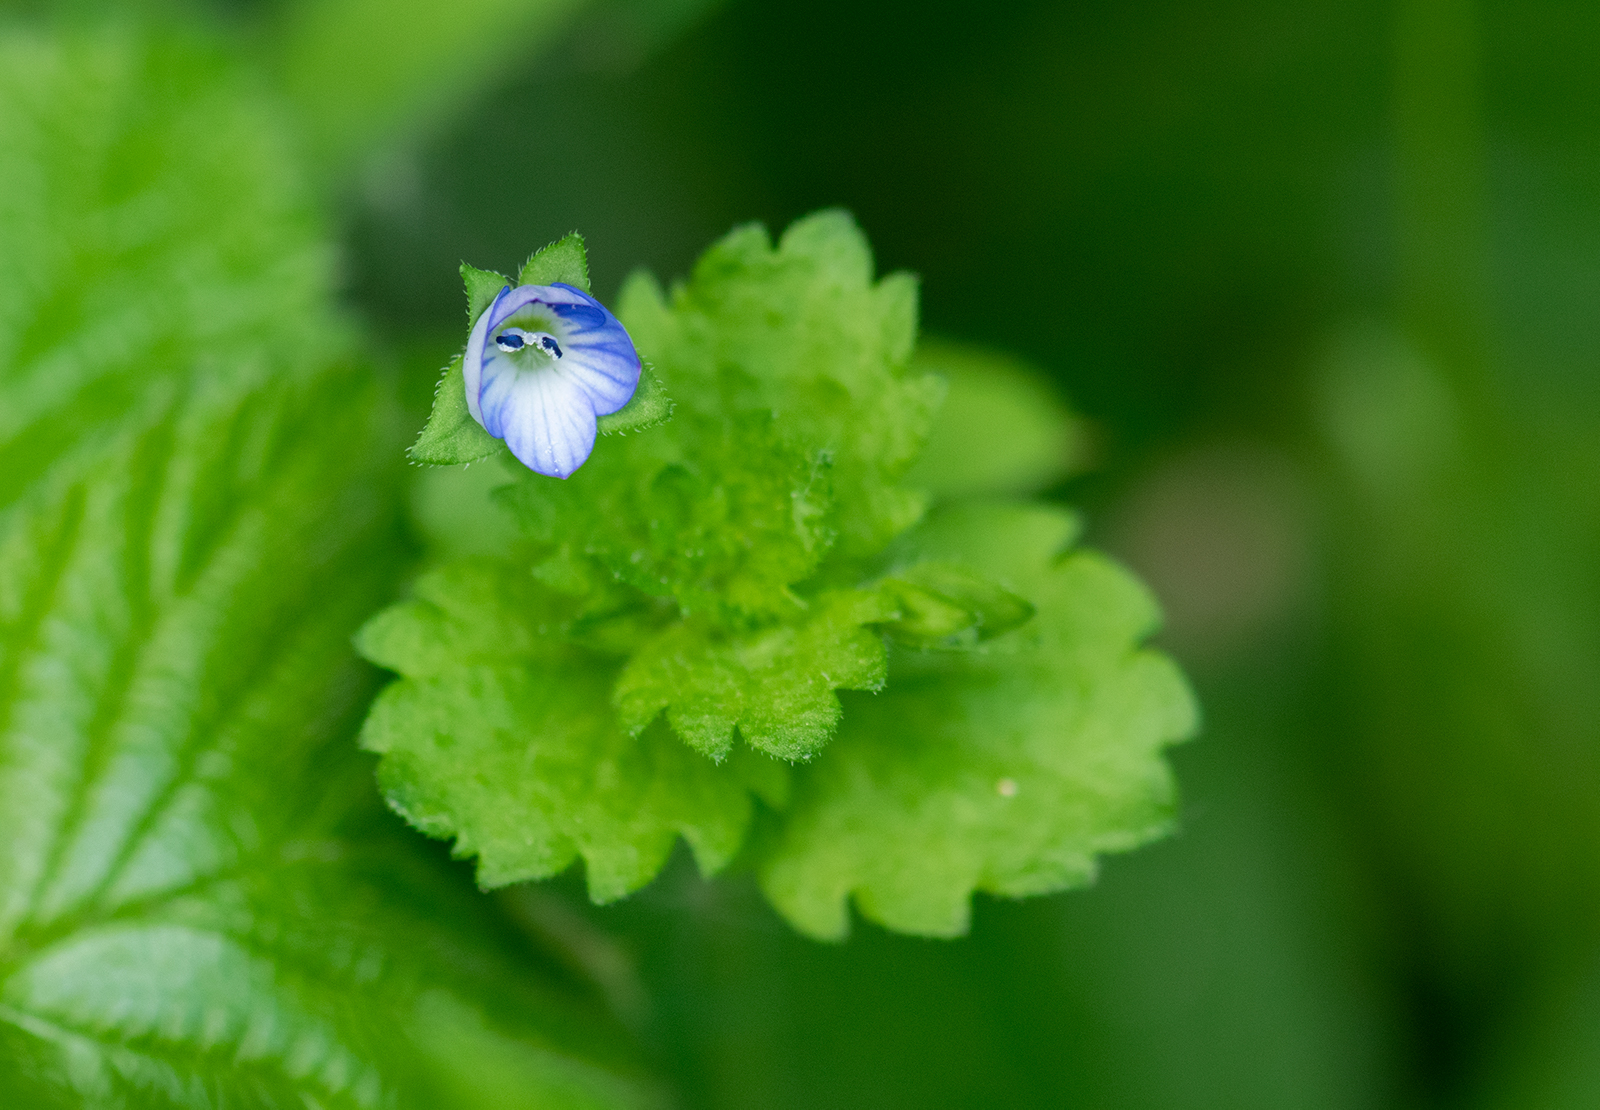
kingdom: Plantae
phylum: Tracheophyta
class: Magnoliopsida
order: Lamiales
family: Plantaginaceae
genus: Veronica
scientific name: Veronica persica
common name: Common field-speedwell
